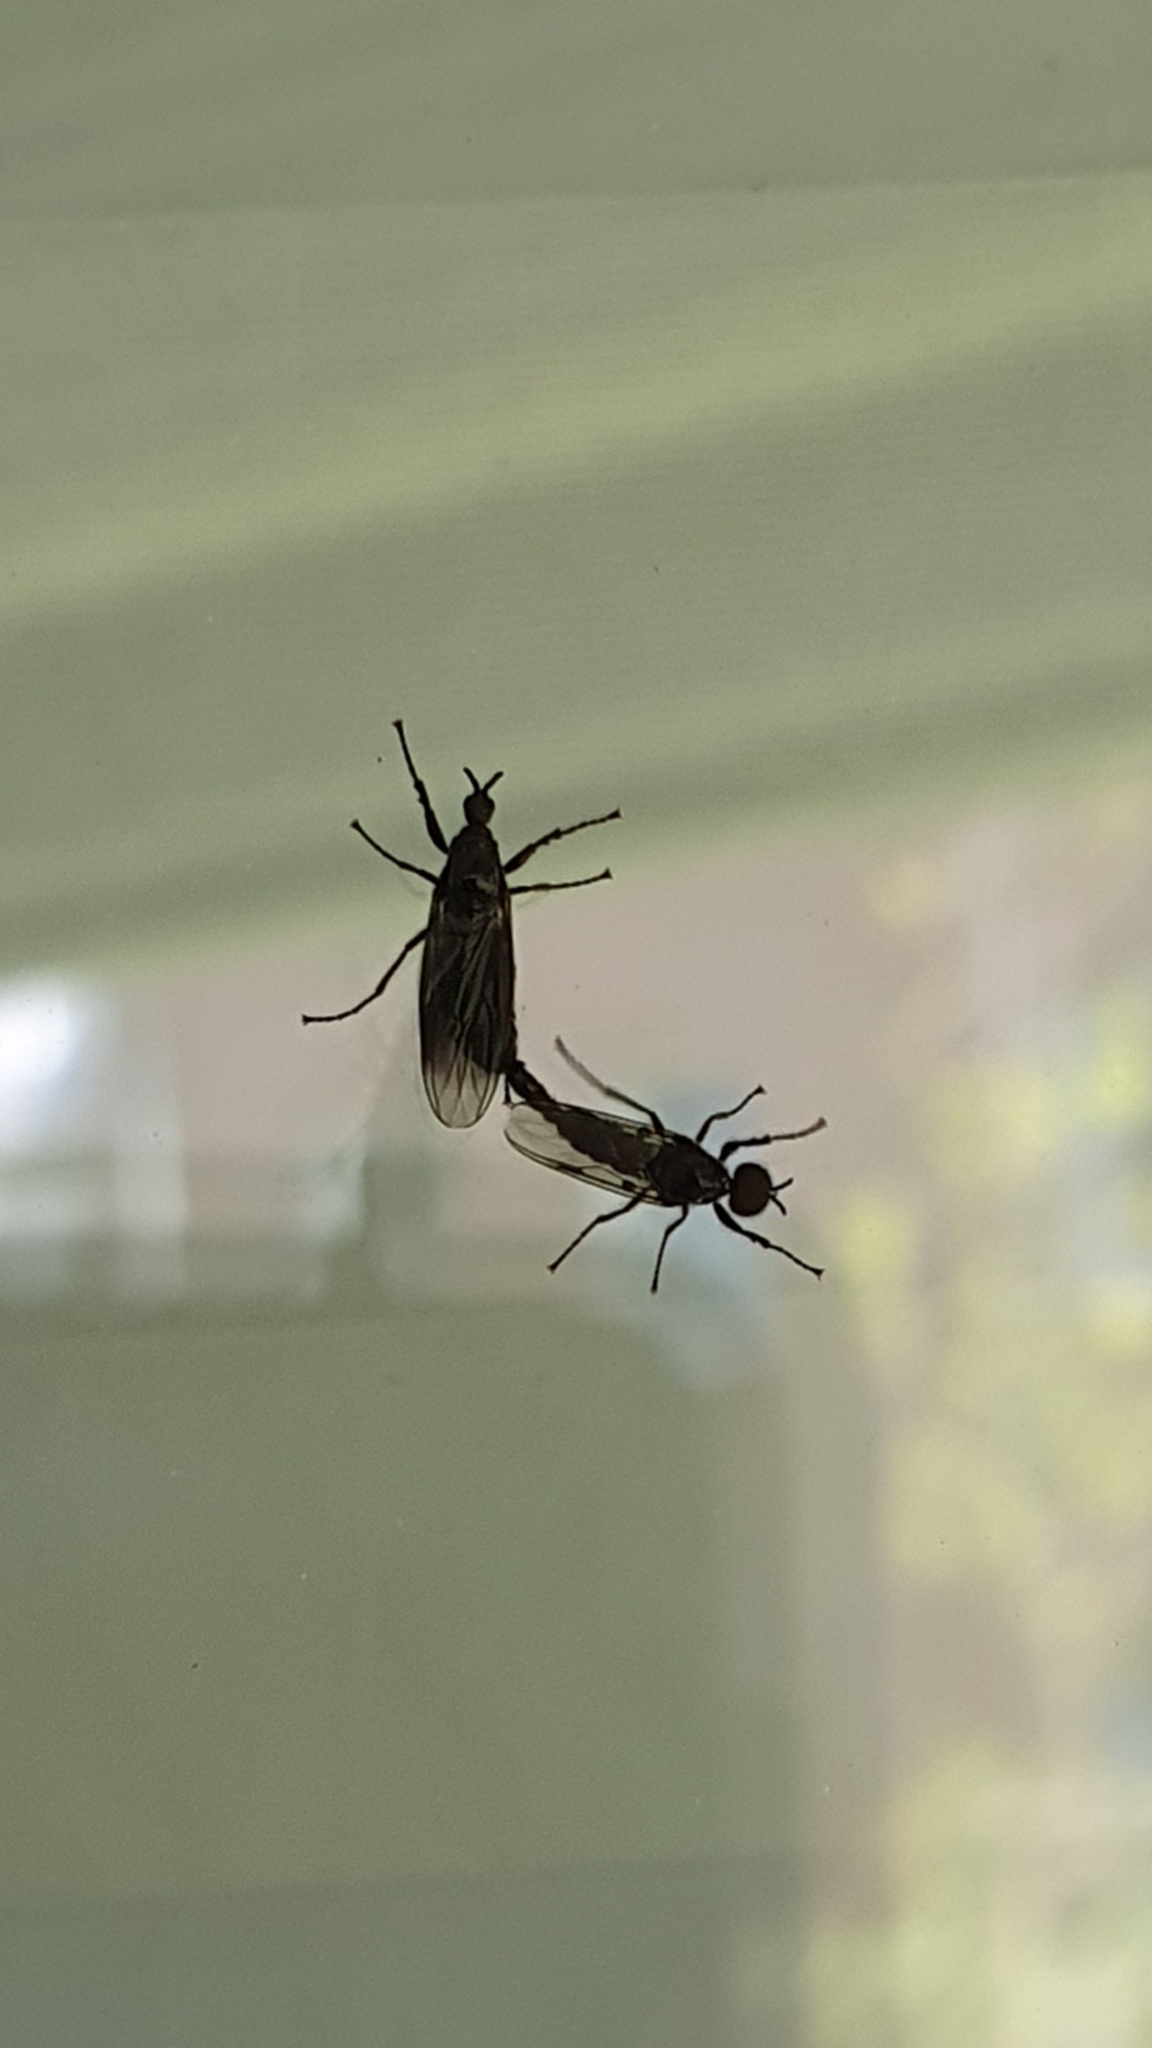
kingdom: Animalia
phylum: Arthropoda
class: Insecta
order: Diptera
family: Bibionidae
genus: Dilophus
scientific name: Dilophus febrilis
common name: Fever fly
